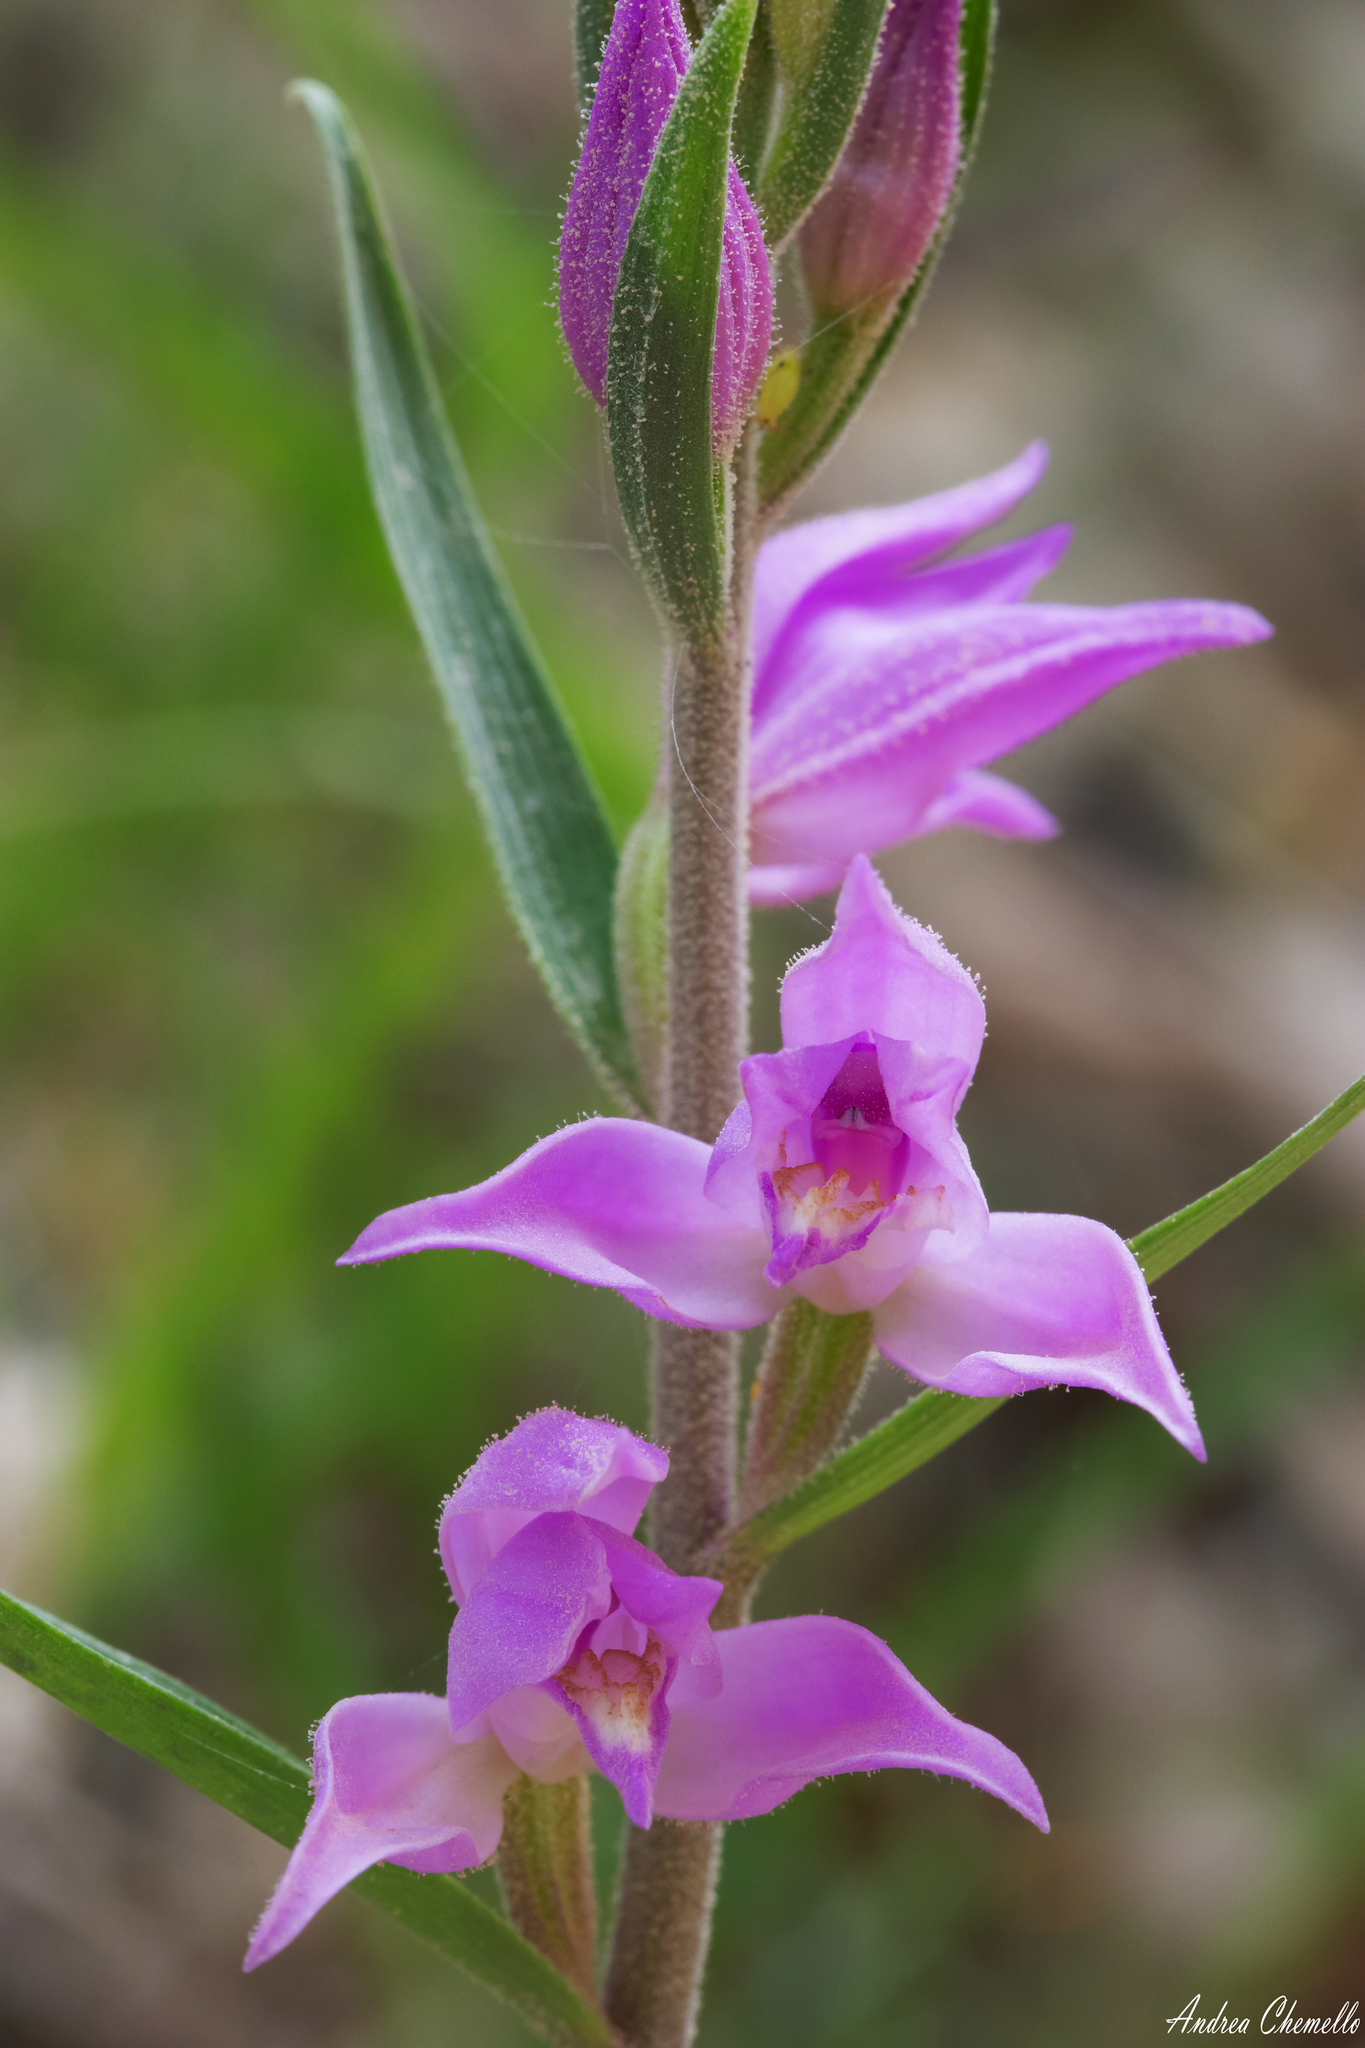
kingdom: Plantae
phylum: Tracheophyta
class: Liliopsida
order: Asparagales
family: Orchidaceae
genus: Cephalanthera
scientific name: Cephalanthera rubra
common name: Red helleborine
